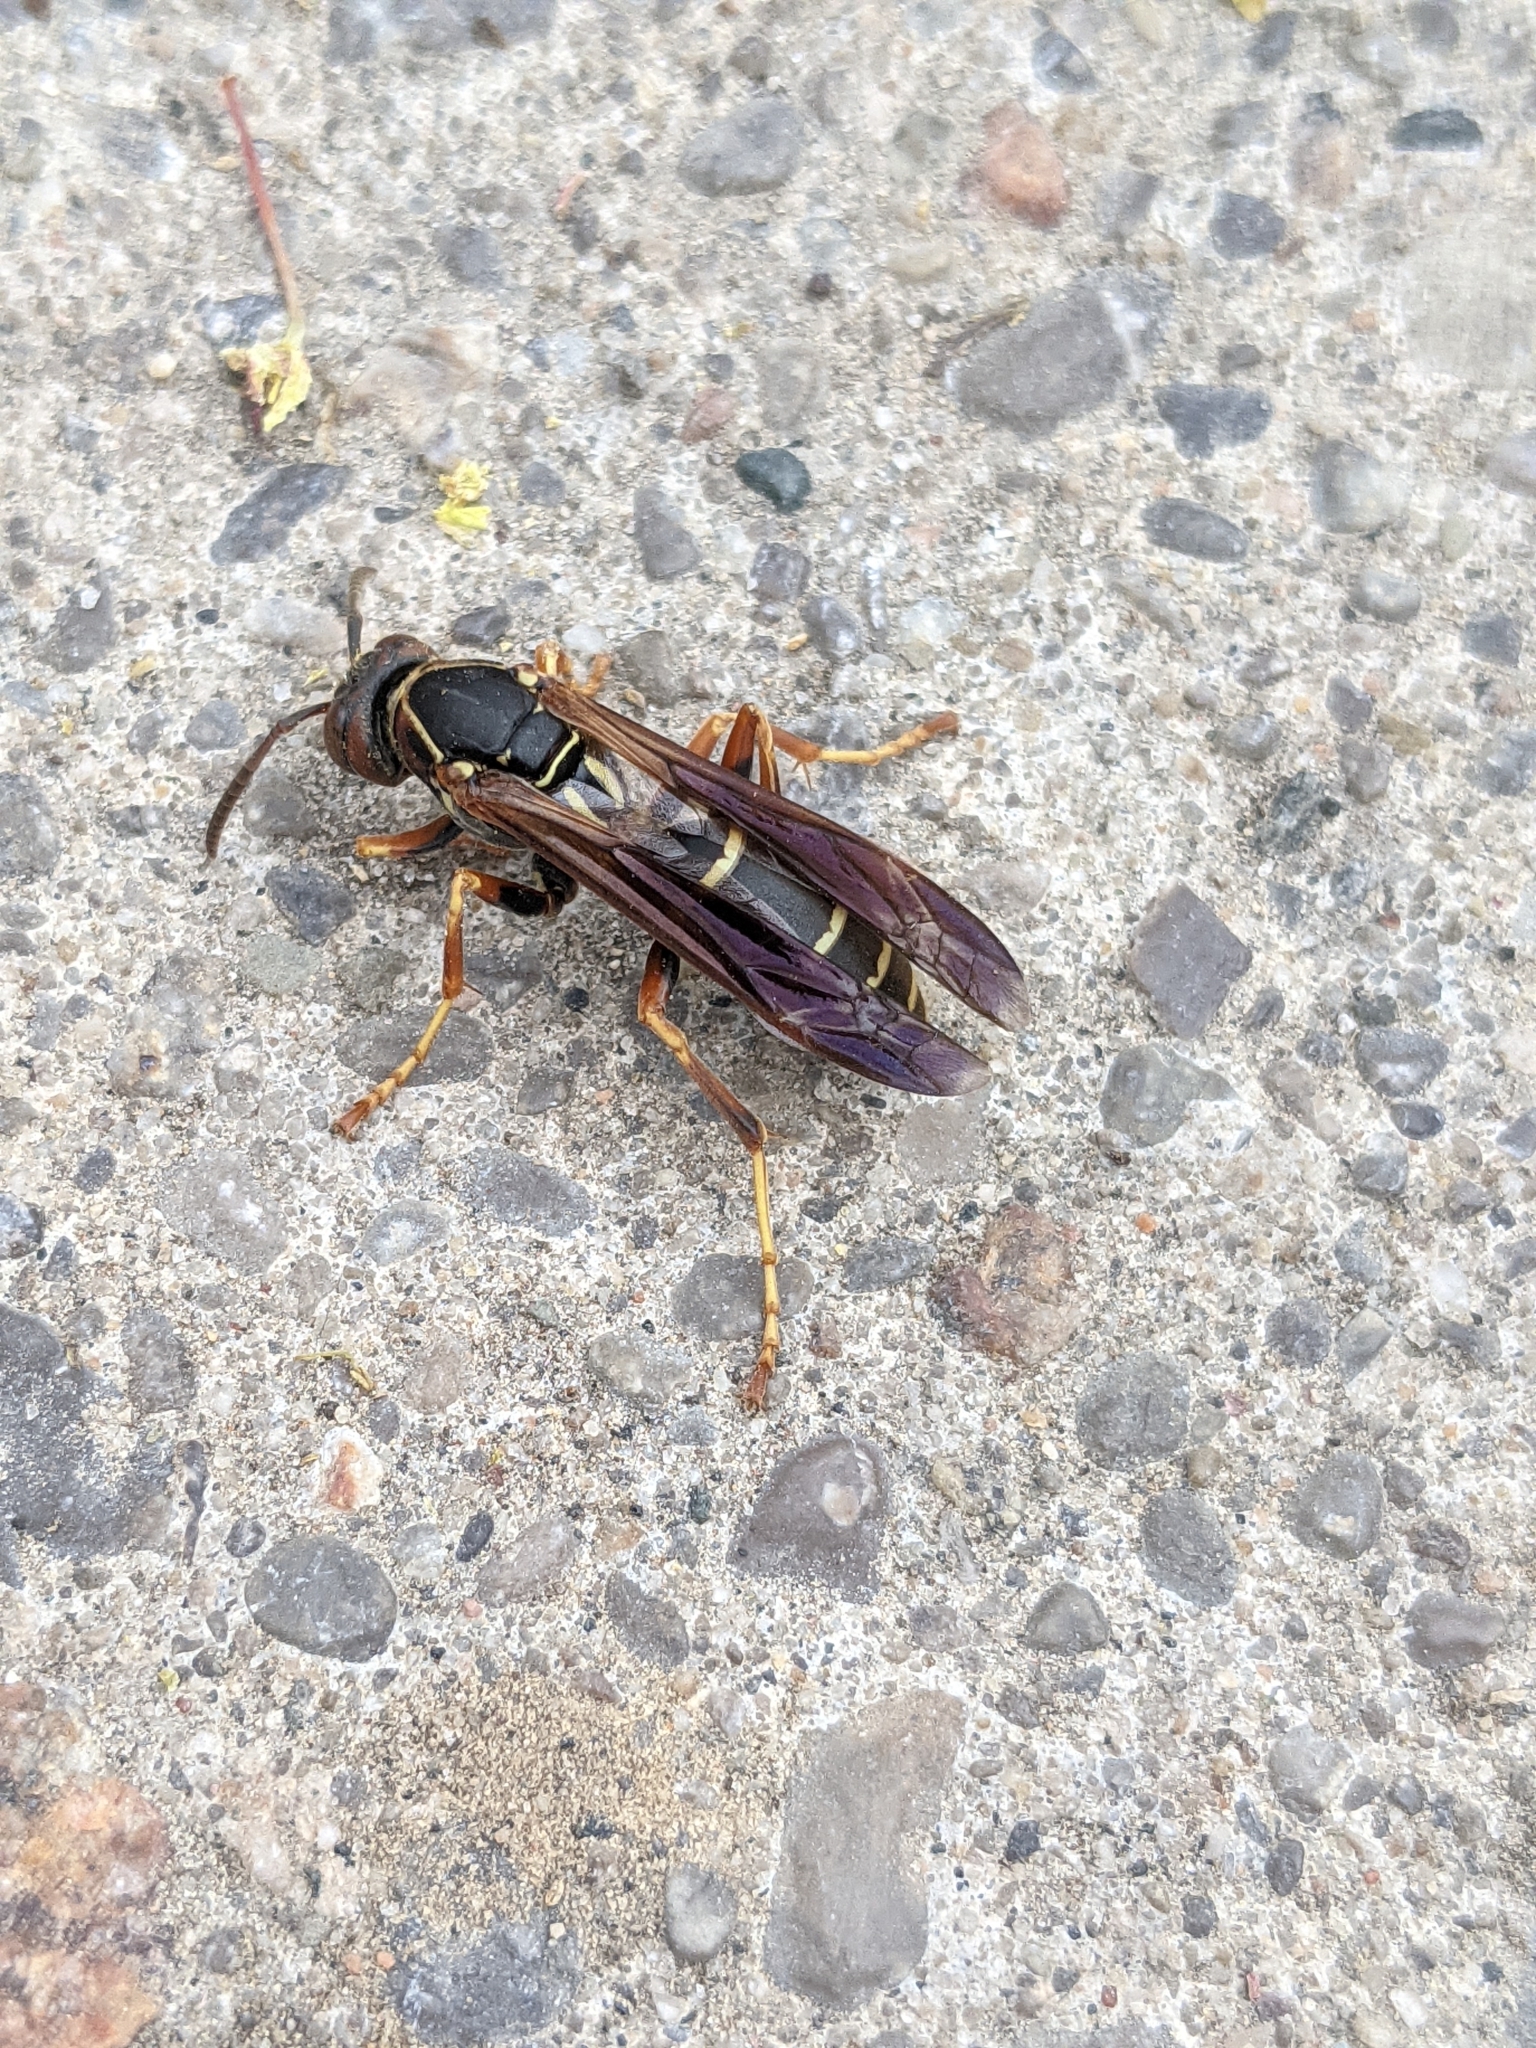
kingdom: Animalia
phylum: Arthropoda
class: Insecta
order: Hymenoptera
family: Eumenidae
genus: Polistes
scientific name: Polistes fuscatus
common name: Dark paper wasp
